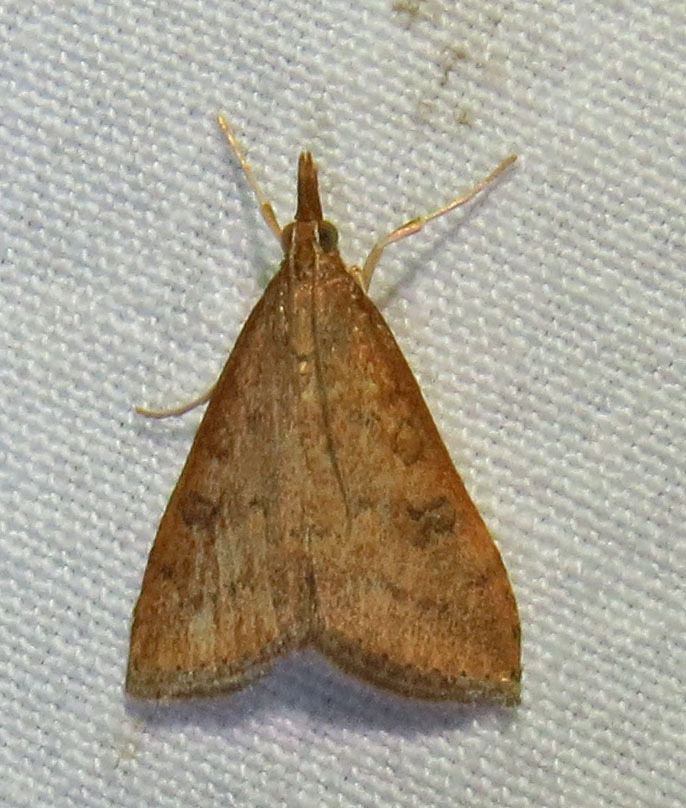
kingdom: Animalia
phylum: Arthropoda
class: Insecta
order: Lepidoptera
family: Crambidae
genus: Udea
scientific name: Udea rubigalis
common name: Celery leaftier moth
